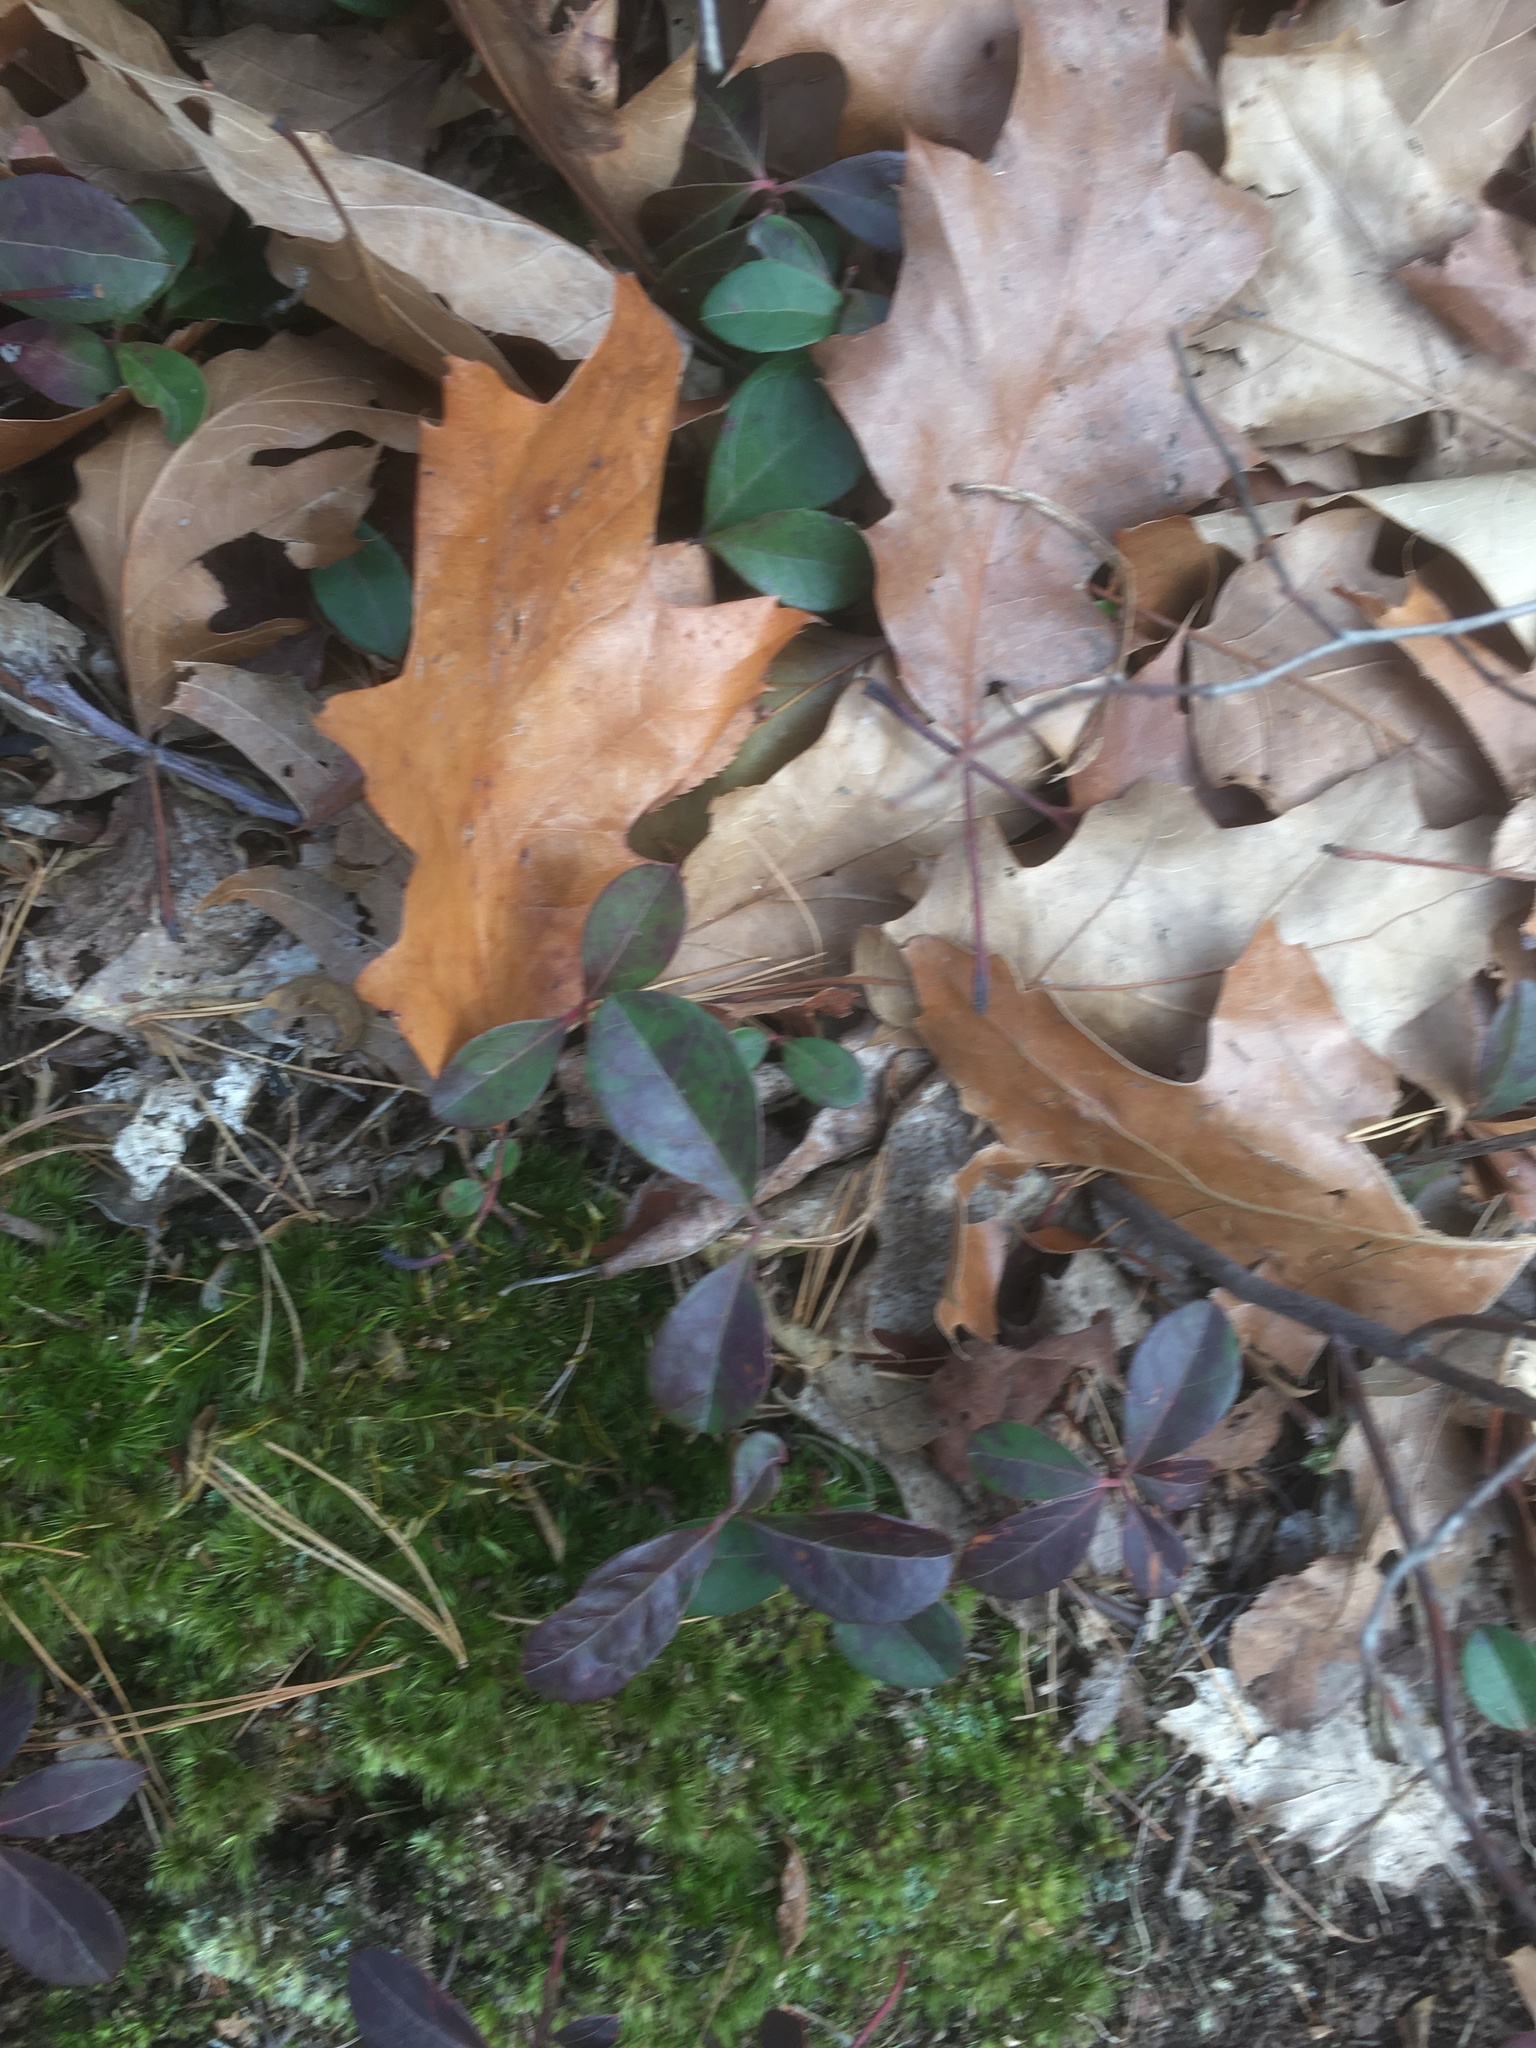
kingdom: Plantae
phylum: Tracheophyta
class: Magnoliopsida
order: Ericales
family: Ericaceae
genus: Gaultheria
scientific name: Gaultheria procumbens
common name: Checkerberry
